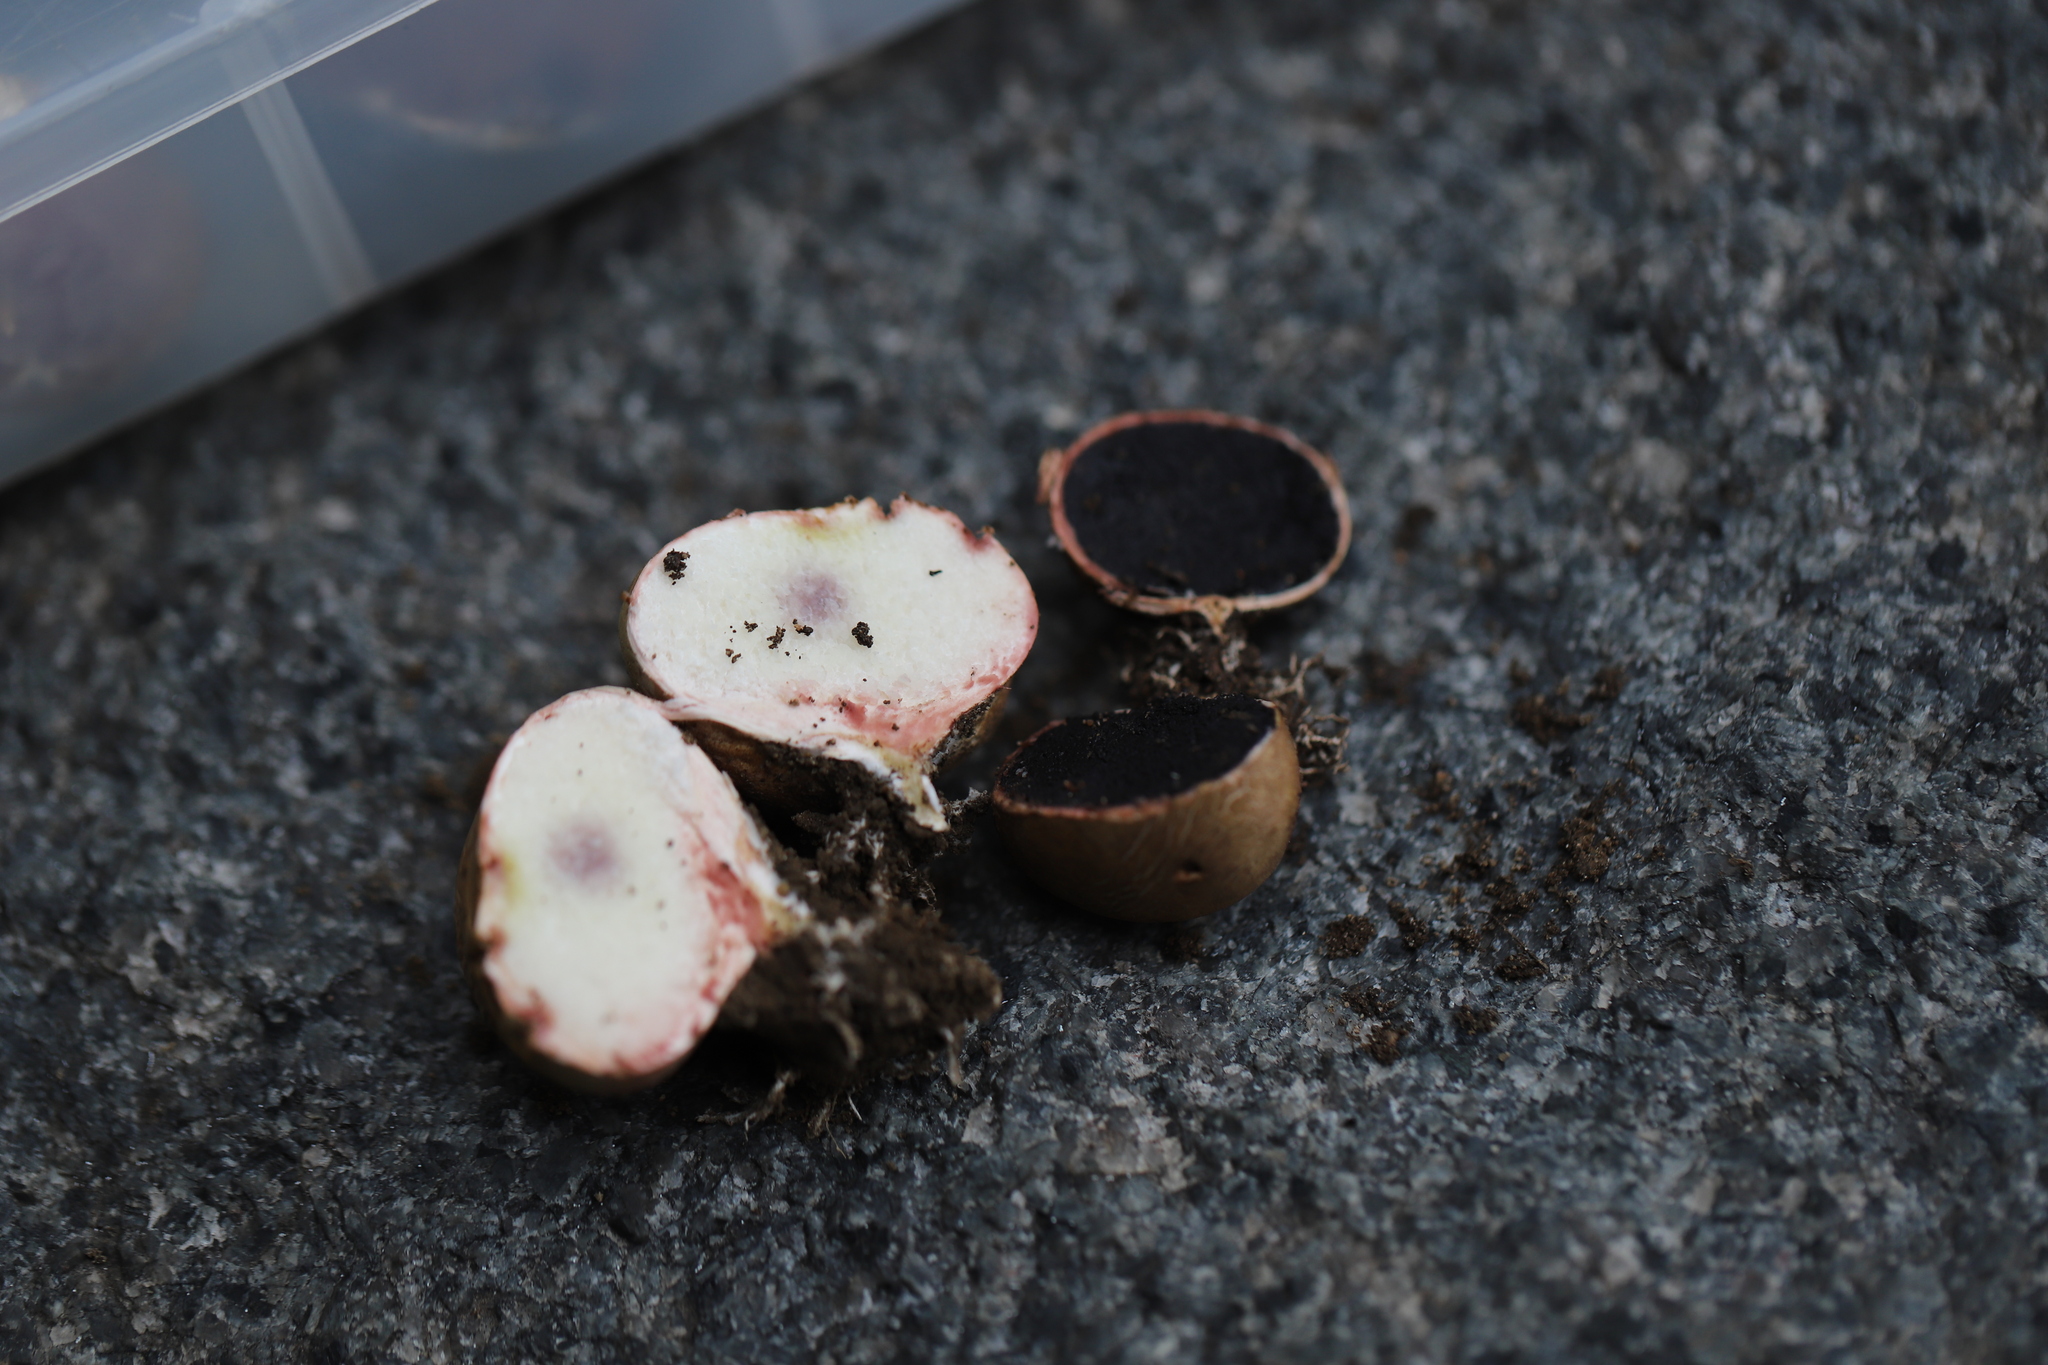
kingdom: Fungi
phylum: Basidiomycota
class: Agaricomycetes
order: Boletales
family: Sclerodermataceae
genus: Scleroderma
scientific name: Scleroderma cepa
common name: Onion earthball
